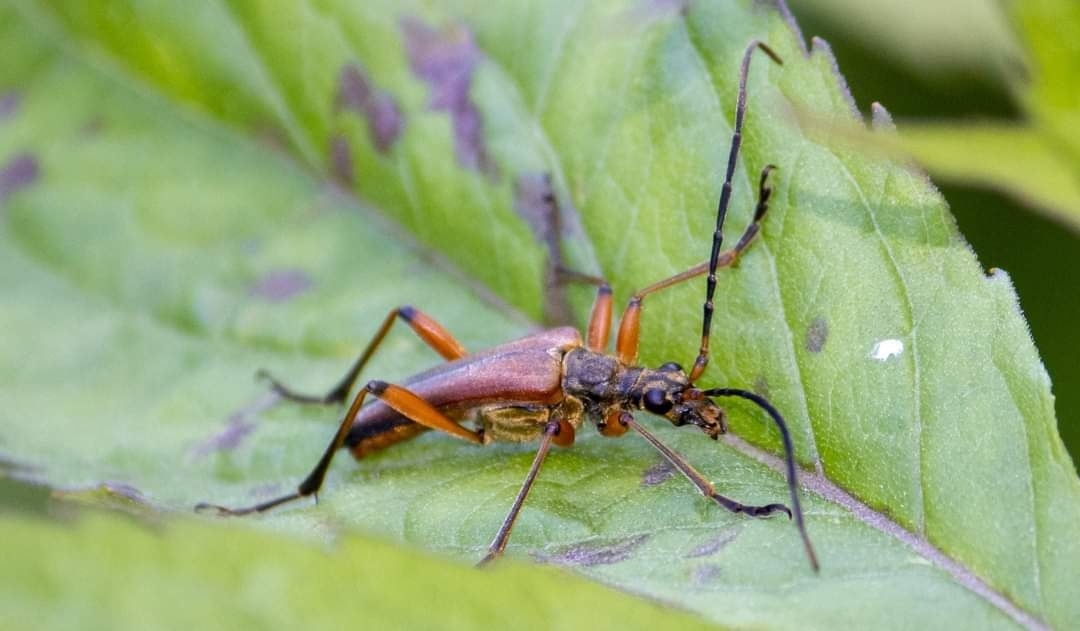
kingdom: Animalia
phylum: Arthropoda
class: Insecta
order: Coleoptera
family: Cerambycidae
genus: Stenocorus
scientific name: Stenocorus meridianus
